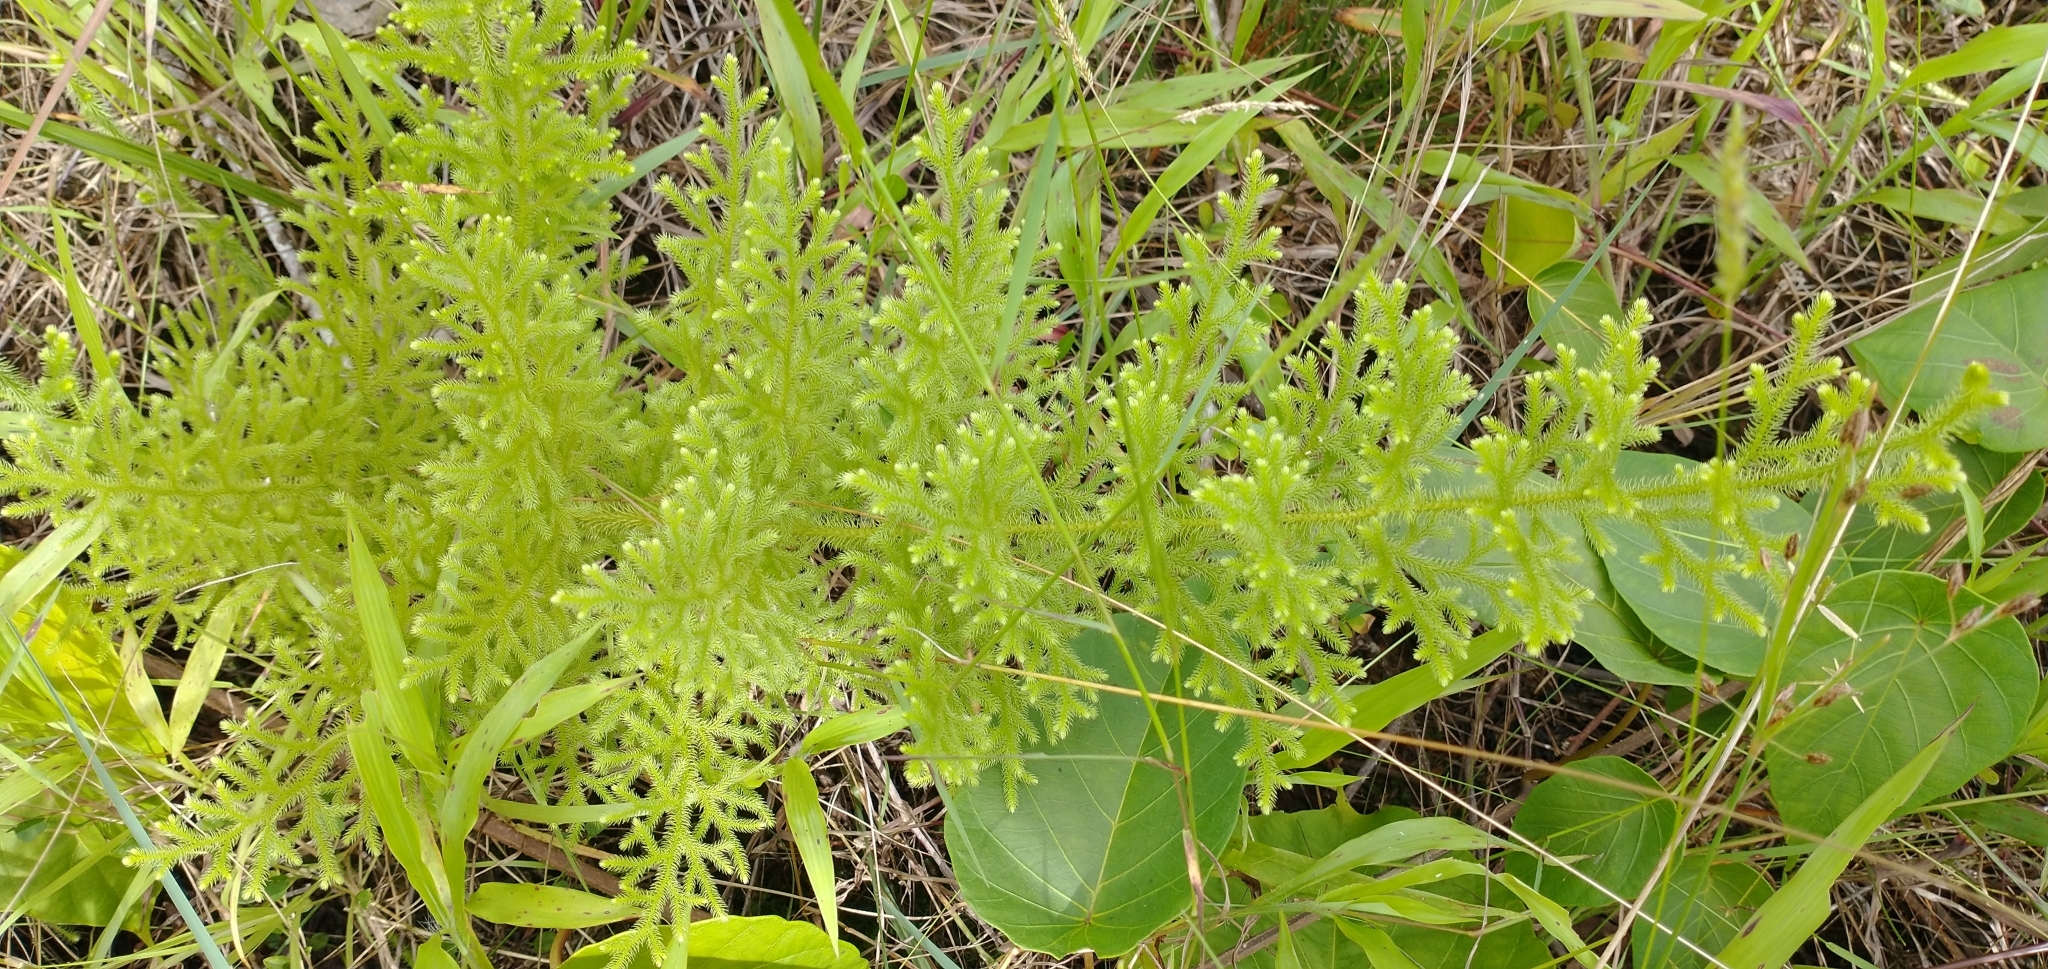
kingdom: Plantae
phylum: Tracheophyta
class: Lycopodiopsida
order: Lycopodiales
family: Lycopodiaceae
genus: Palhinhaea
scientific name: Palhinhaea cernua
